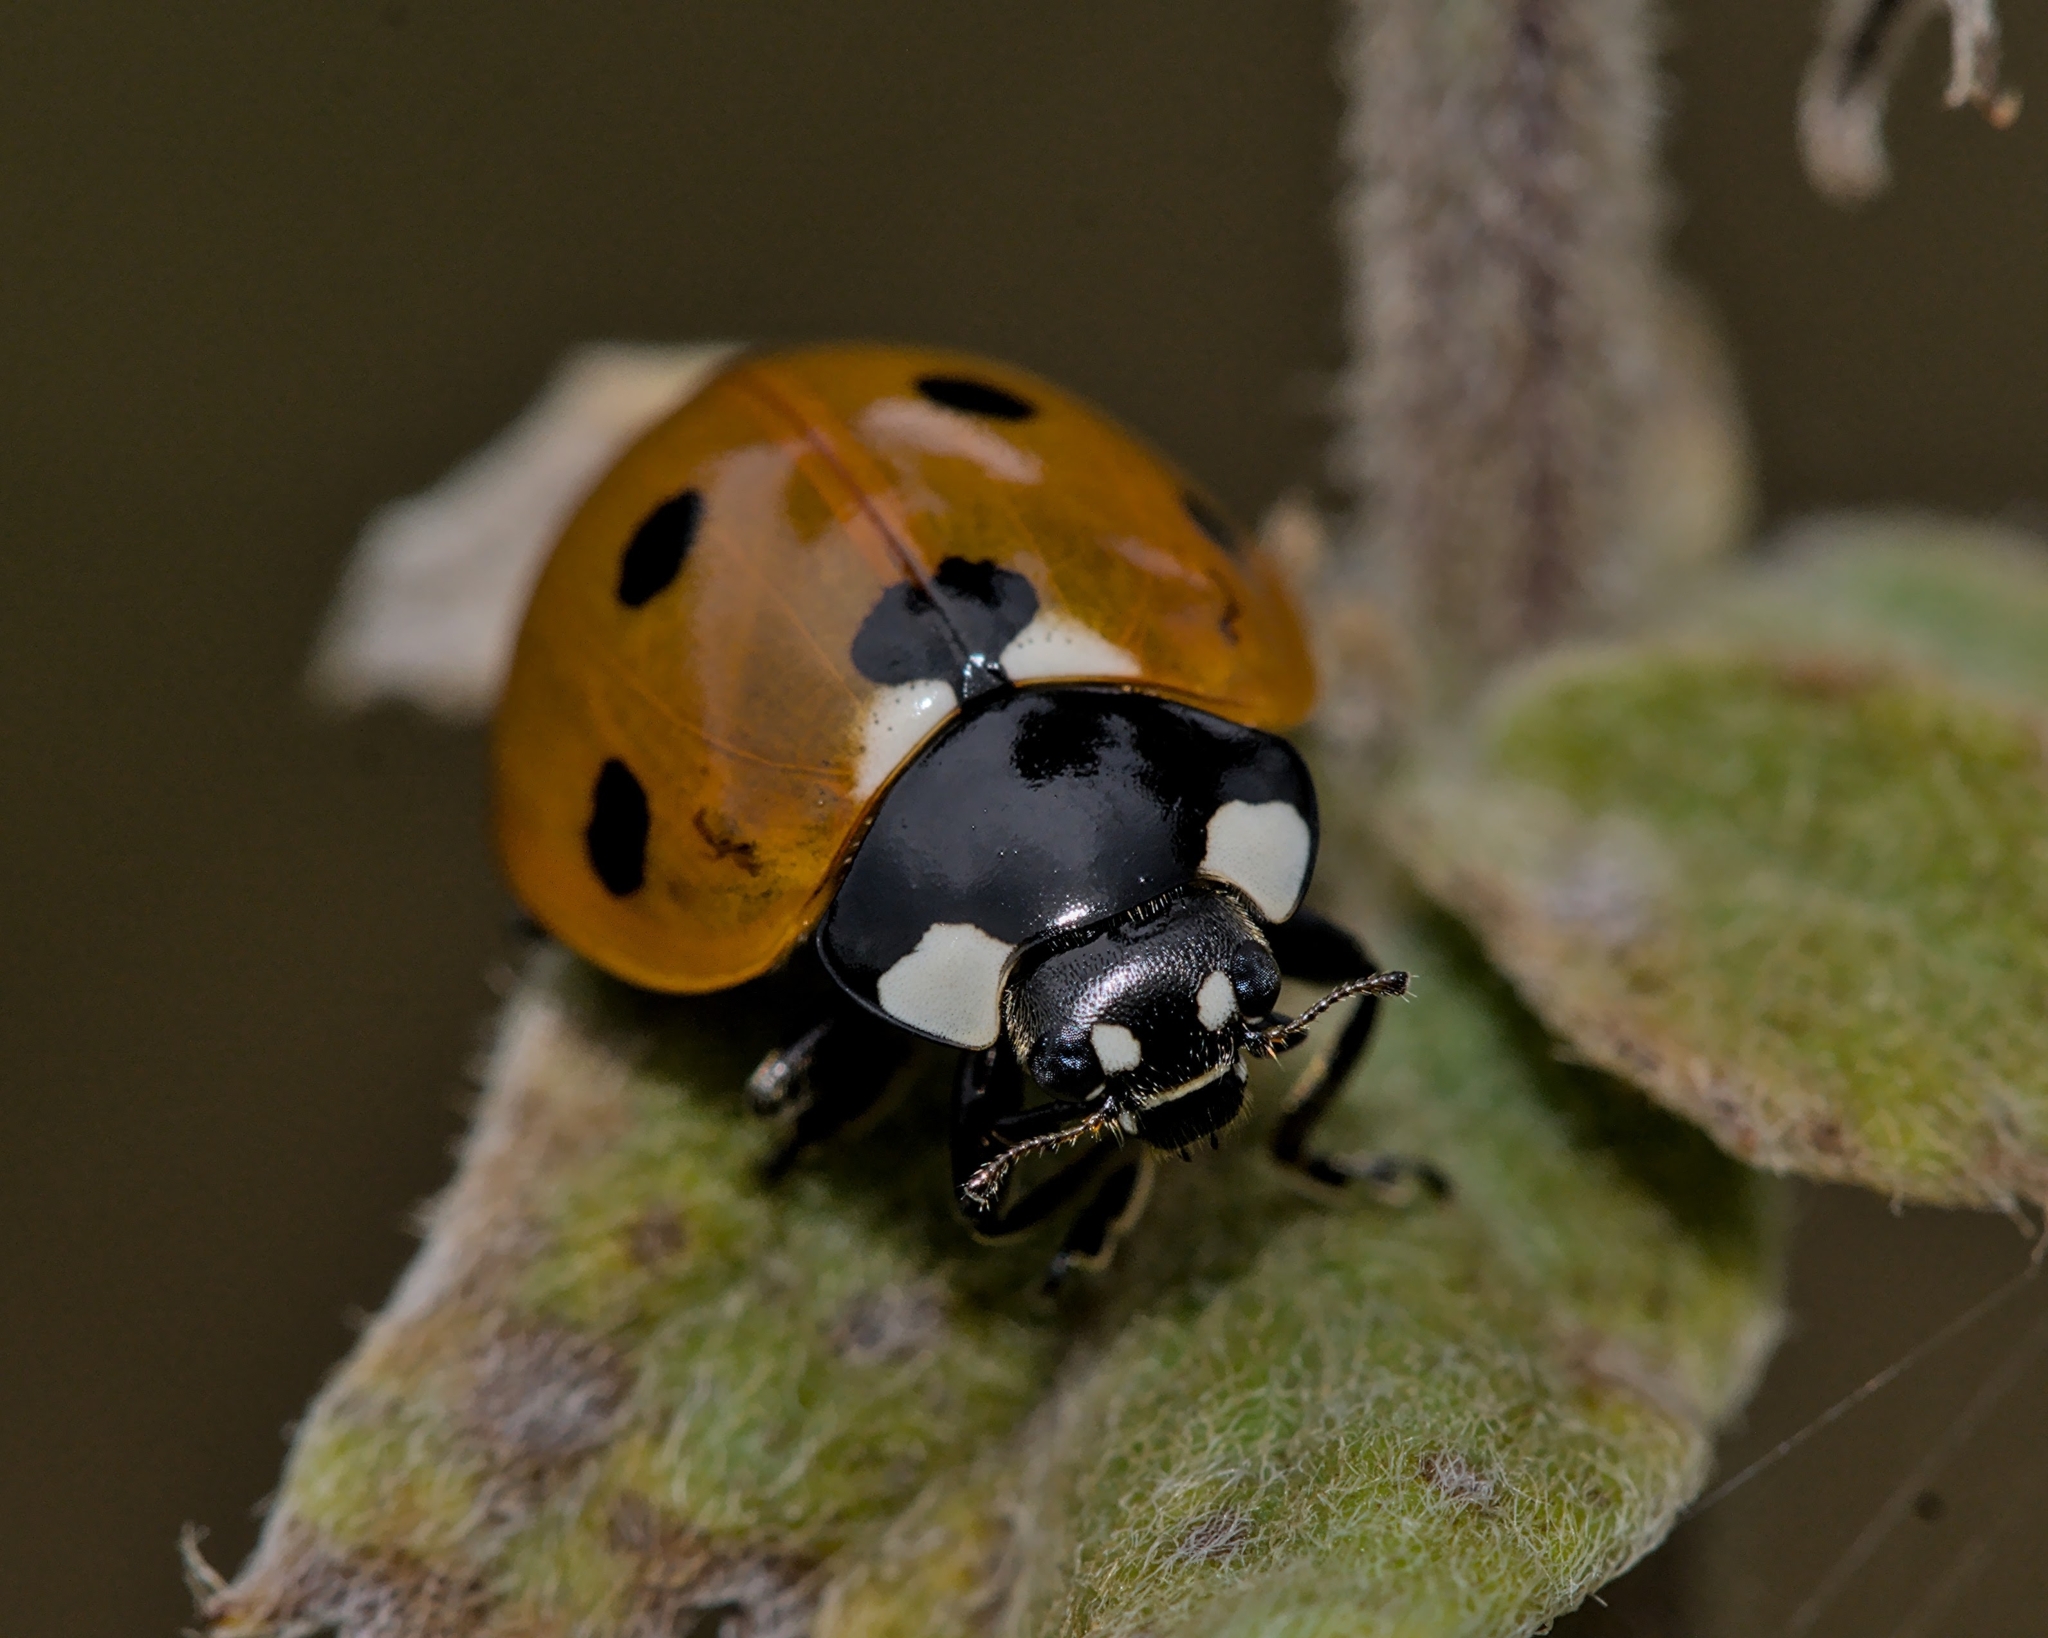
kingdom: Animalia
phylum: Arthropoda
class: Insecta
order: Coleoptera
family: Coccinellidae
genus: Coccinella
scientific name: Coccinella septempunctata
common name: Sevenspotted lady beetle
